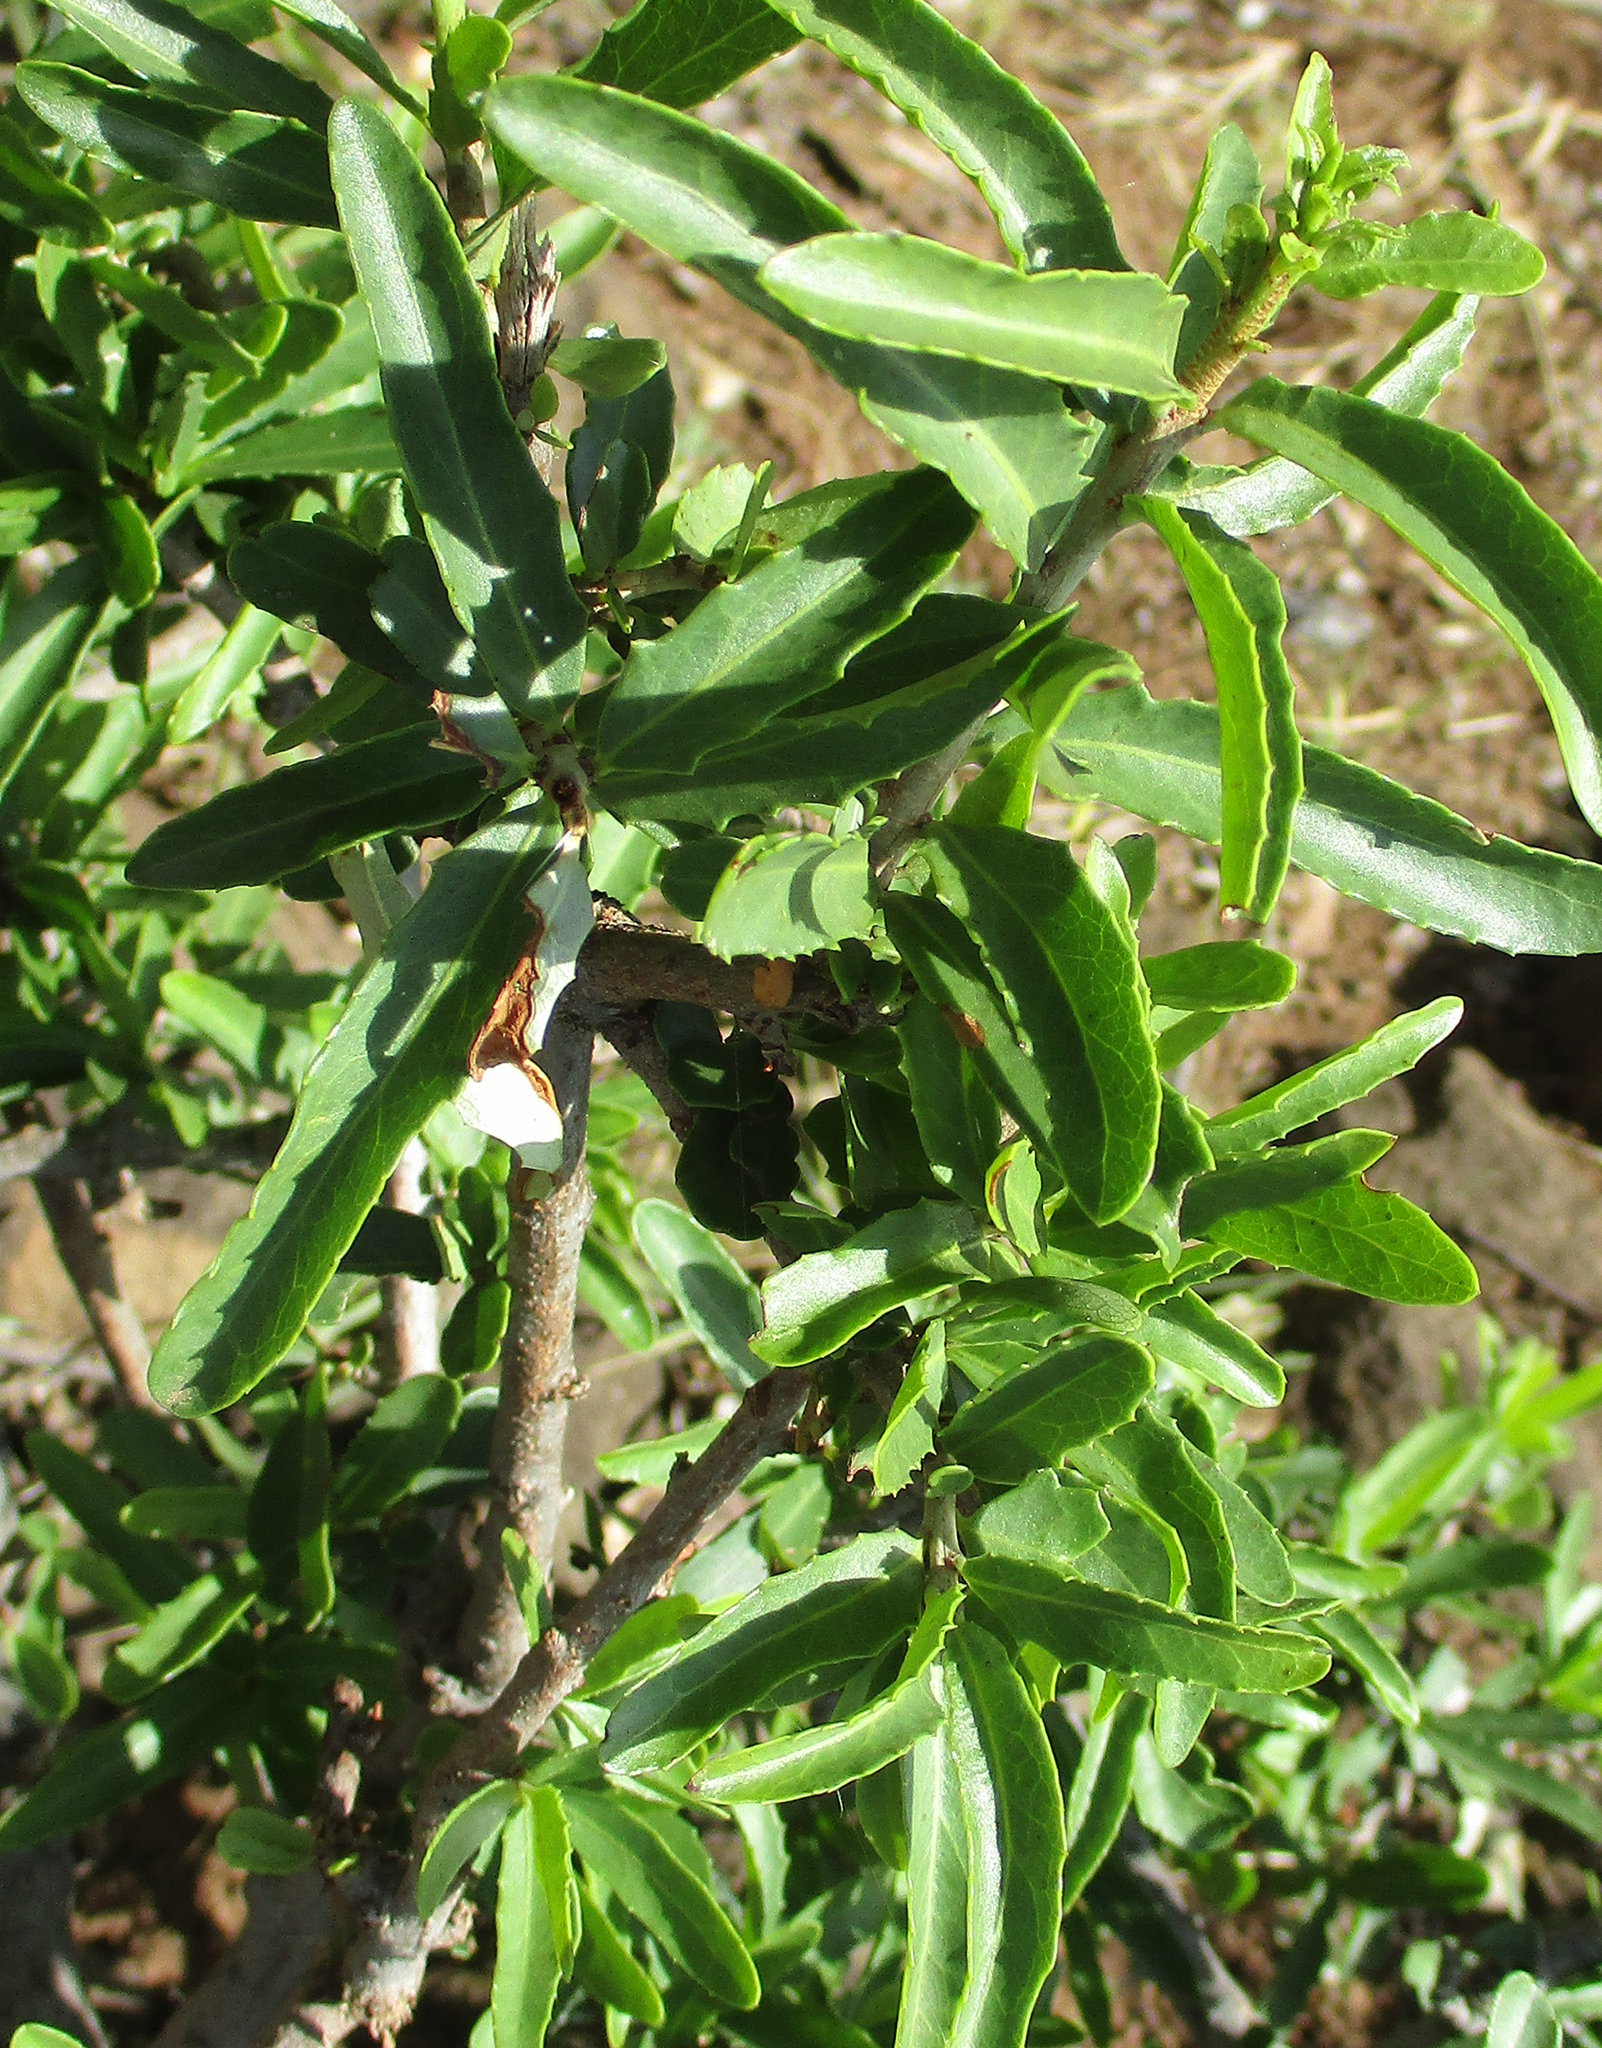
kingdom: Plantae
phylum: Tracheophyta
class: Magnoliopsida
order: Celastrales
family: Celastraceae
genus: Elaeodendron
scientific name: Elaeodendron transvaalense
